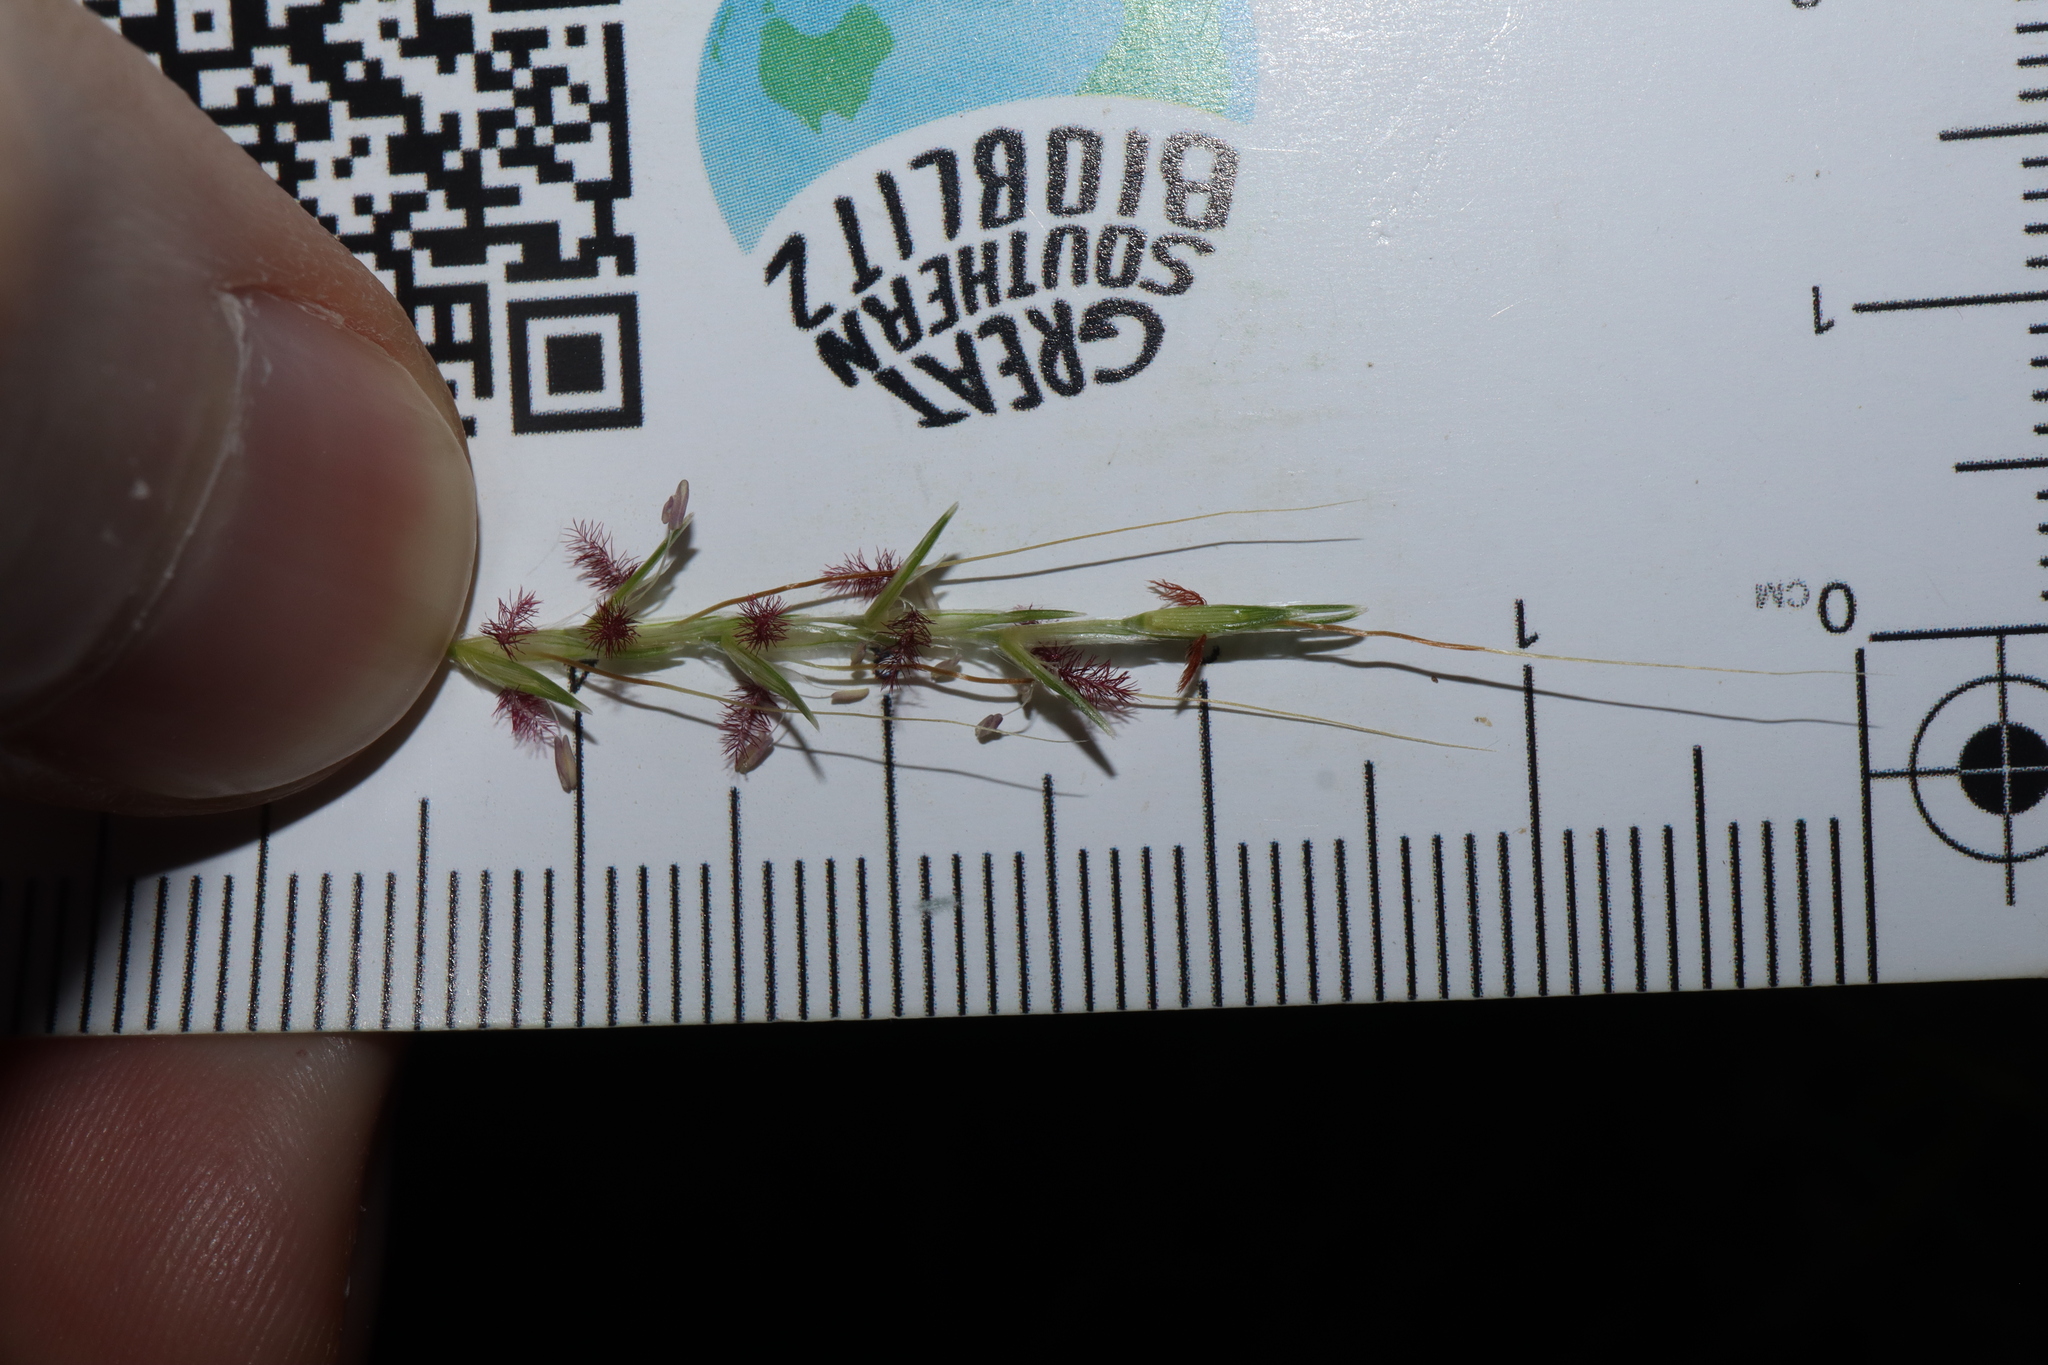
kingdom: Plantae
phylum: Tracheophyta
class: Liliopsida
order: Poales
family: Poaceae
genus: Bothriochloa
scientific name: Bothriochloa macra
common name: Pitted beard grass
